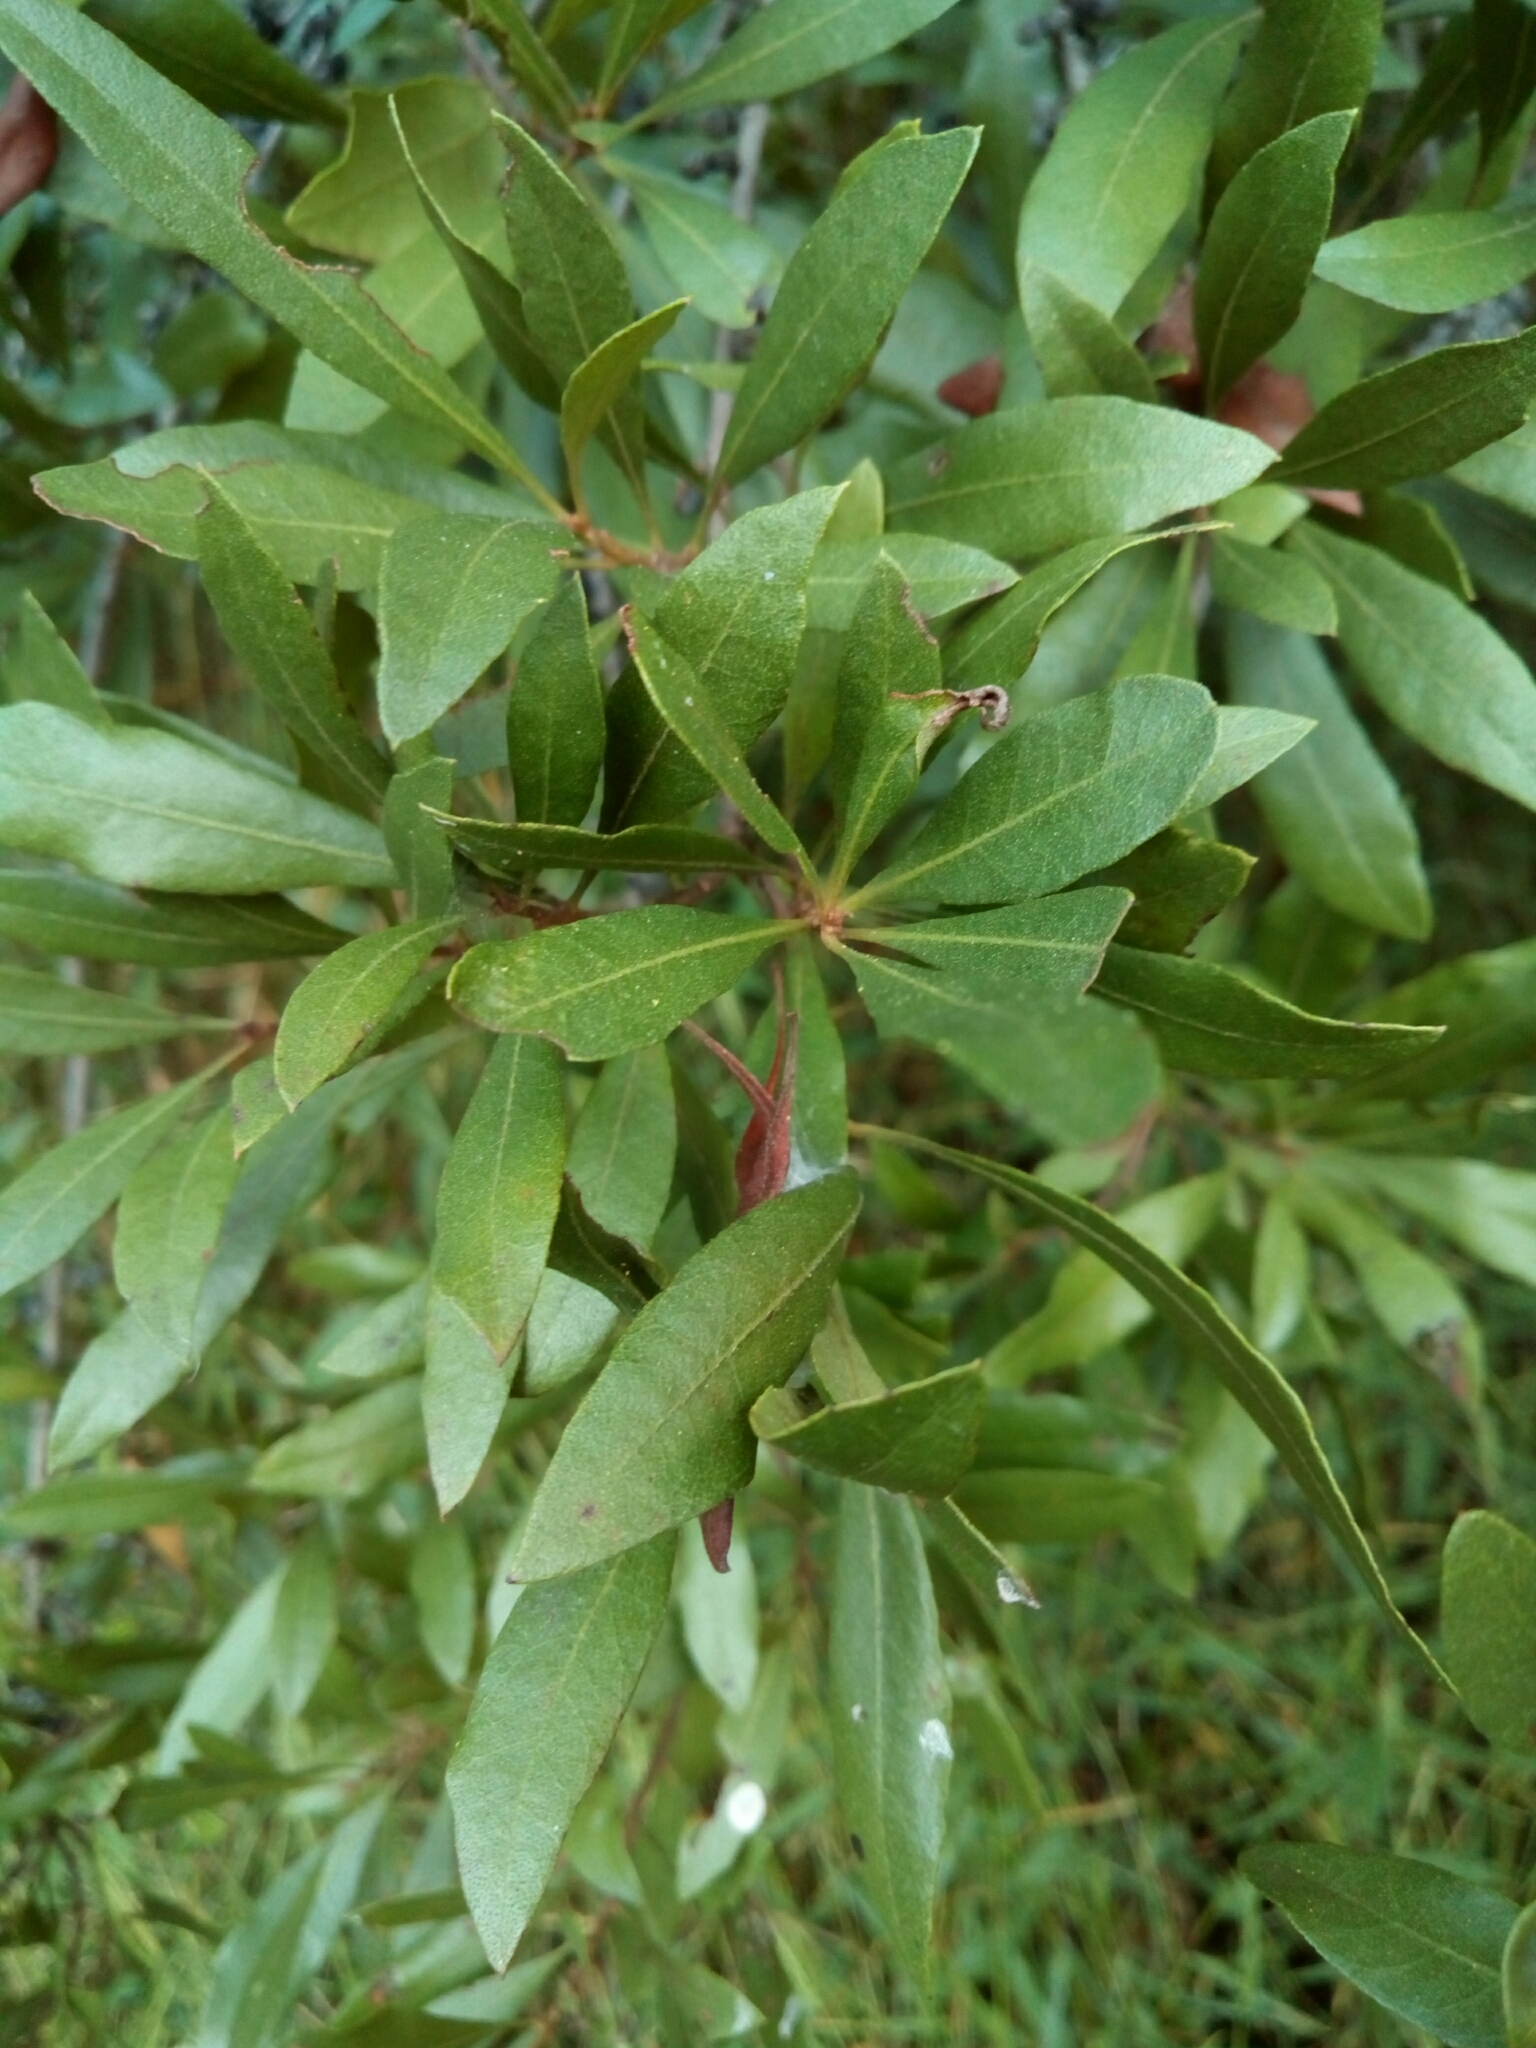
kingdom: Plantae
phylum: Tracheophyta
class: Magnoliopsida
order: Fagales
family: Myricaceae
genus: Morella
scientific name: Morella cerifera
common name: Wax myrtle
